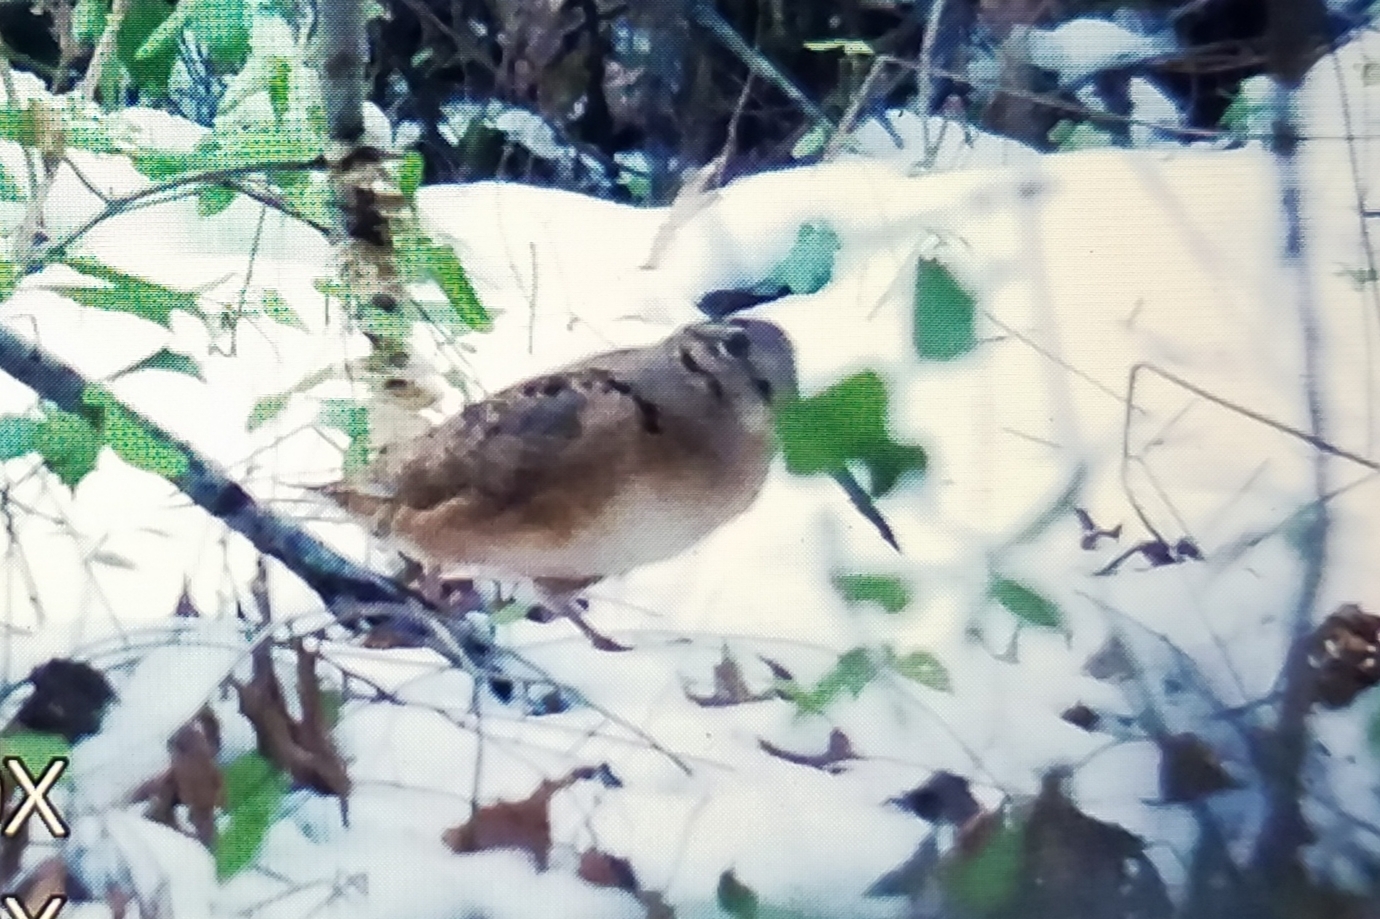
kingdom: Animalia
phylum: Chordata
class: Aves
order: Charadriiformes
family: Scolopacidae
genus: Scolopax
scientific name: Scolopax minor
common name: American woodcock
